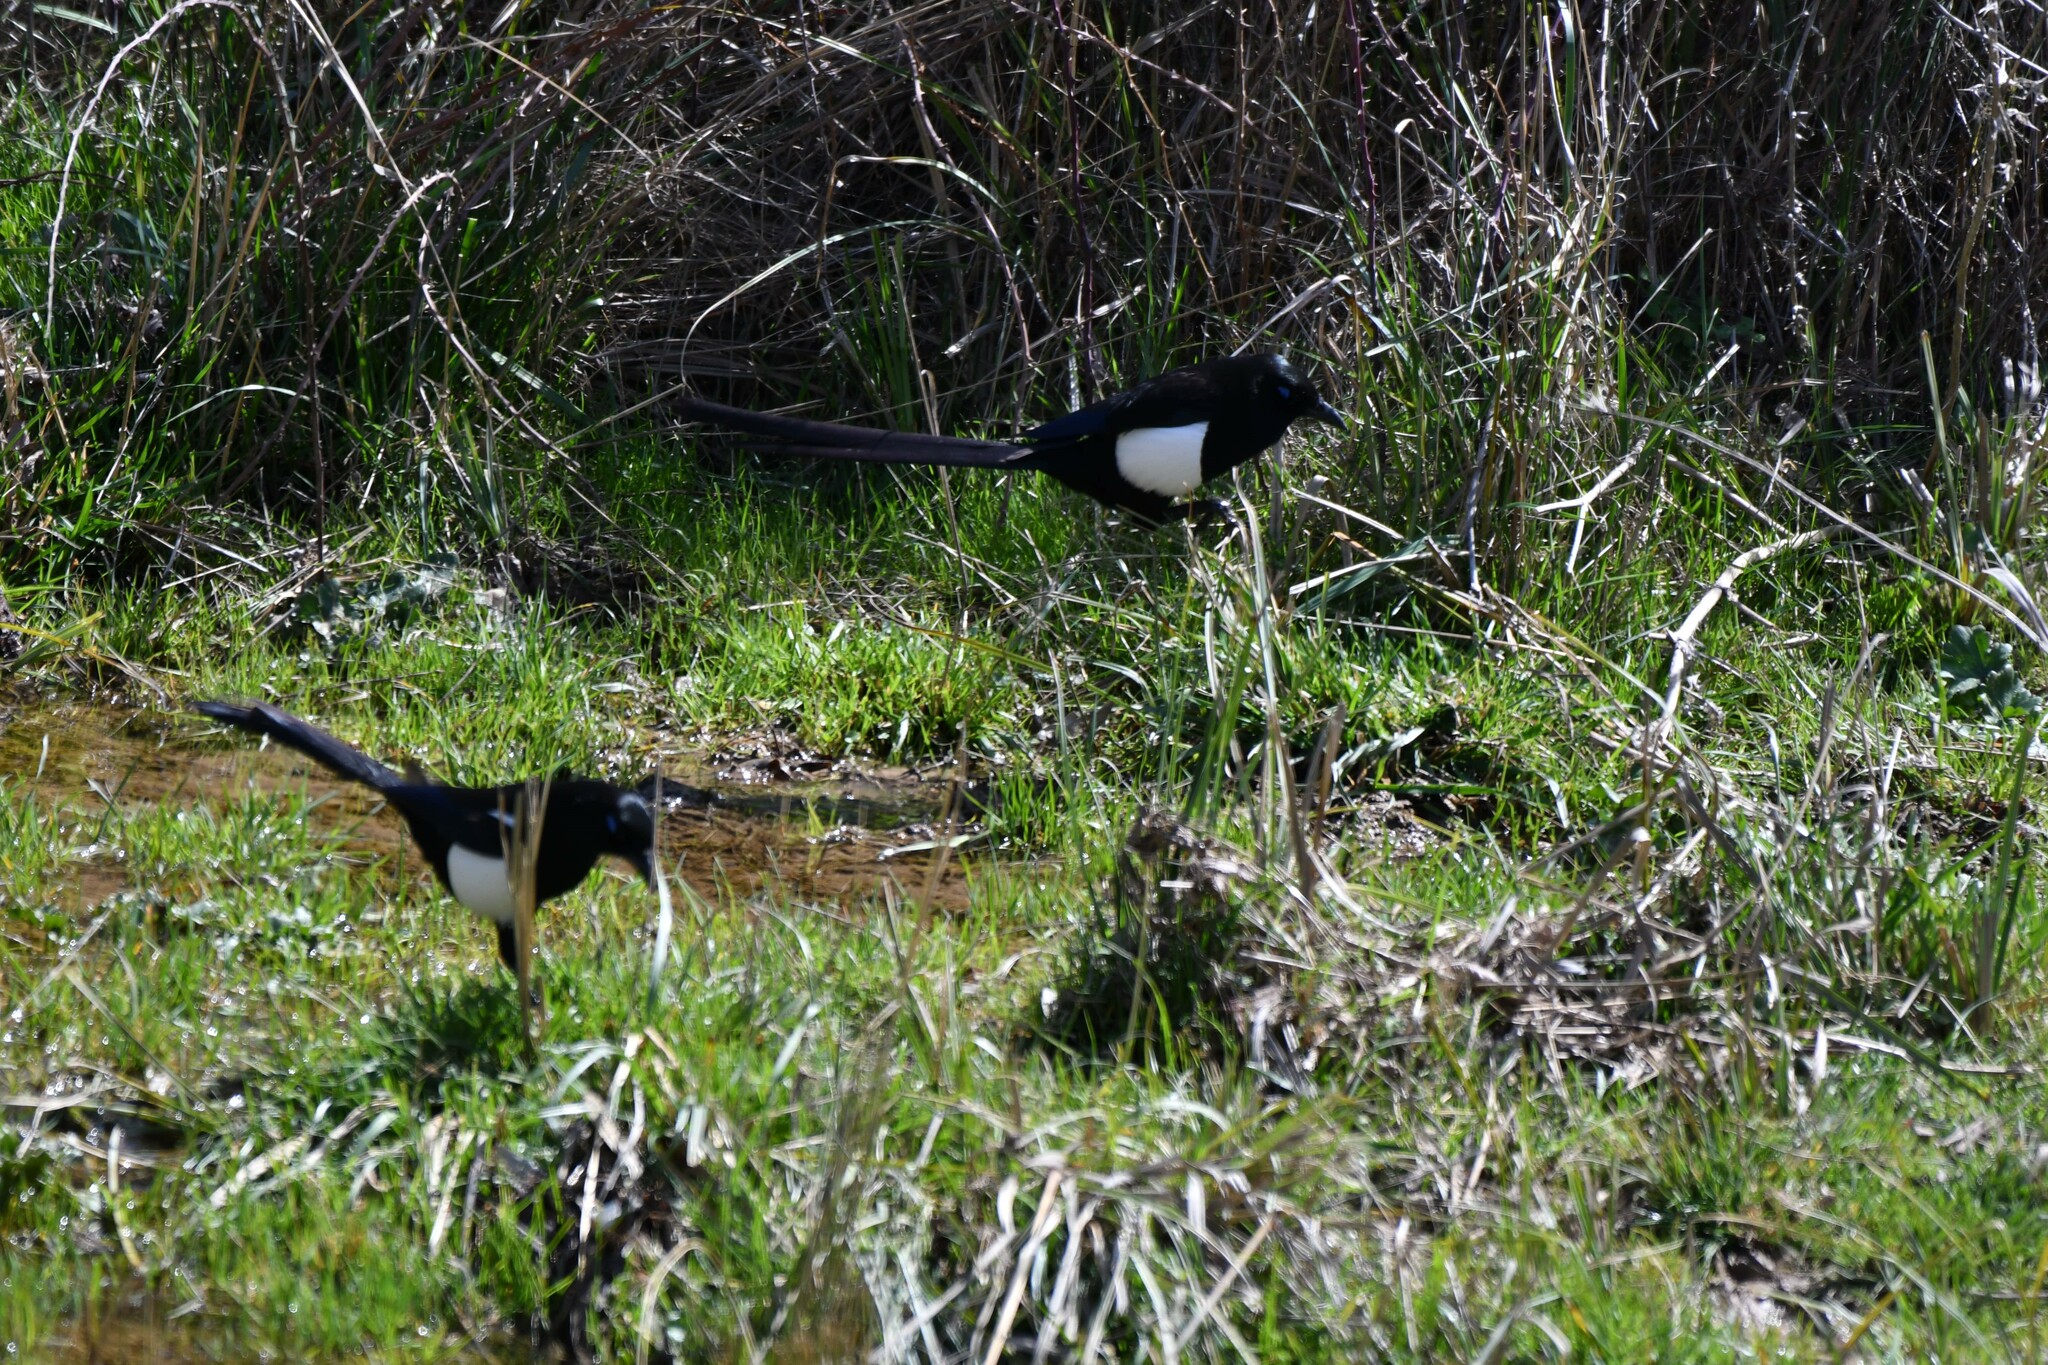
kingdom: Animalia
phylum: Chordata
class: Aves
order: Passeriformes
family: Corvidae
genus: Pica
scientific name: Pica mauritanica
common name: Maghreb magpie
